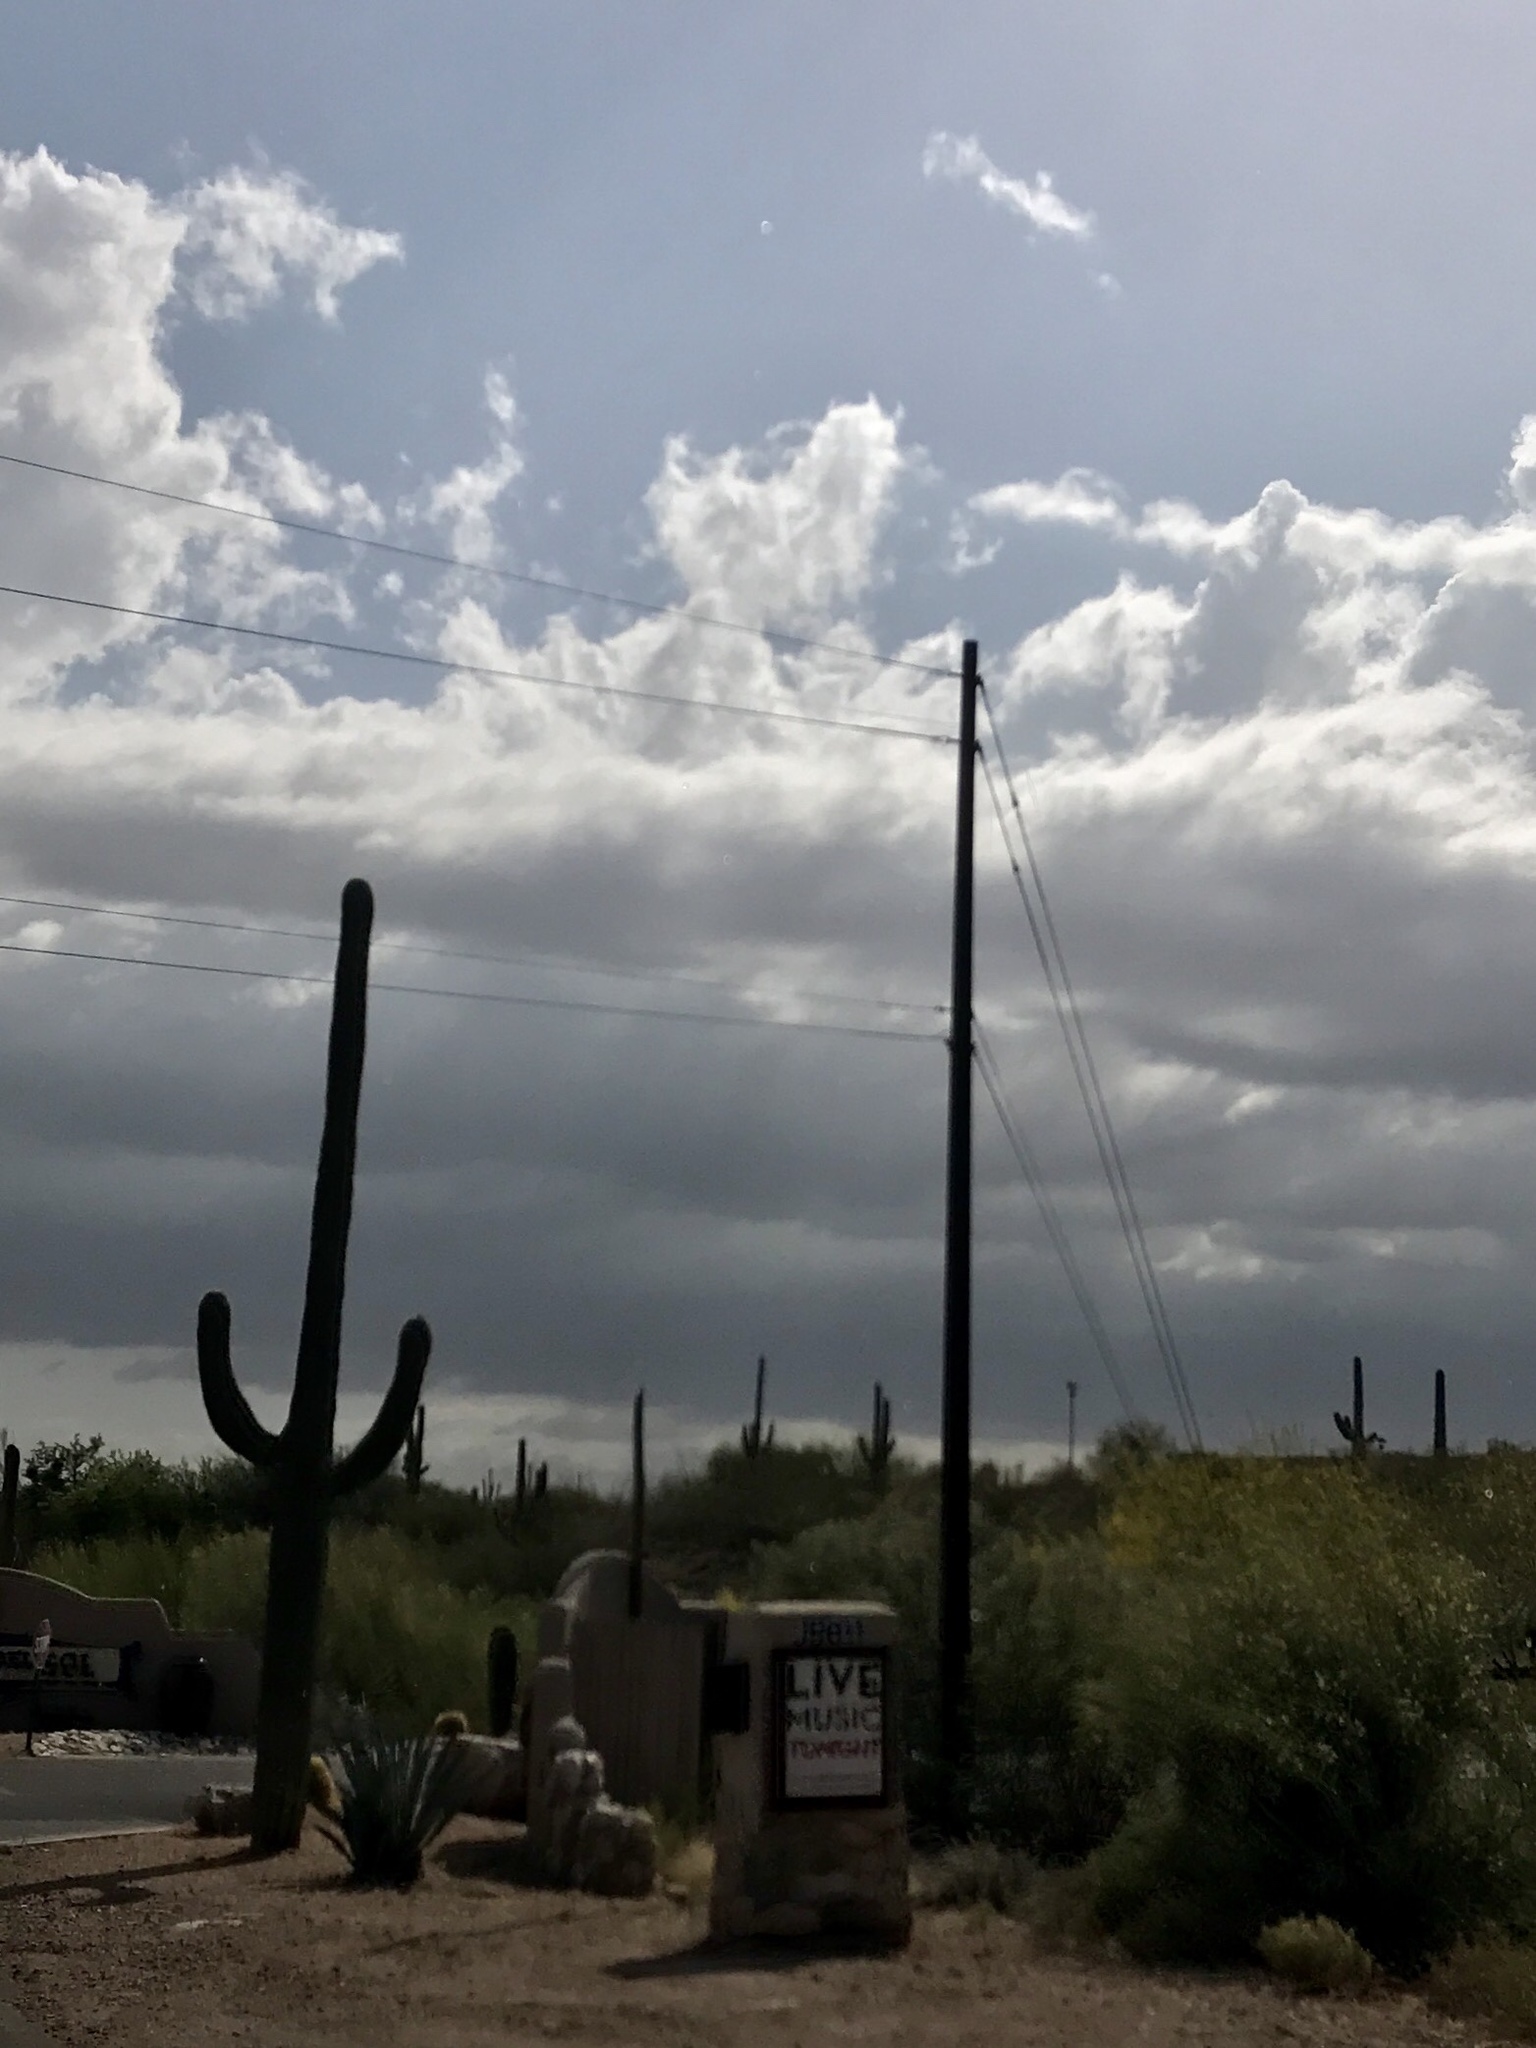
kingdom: Plantae
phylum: Tracheophyta
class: Magnoliopsida
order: Caryophyllales
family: Cactaceae
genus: Carnegiea
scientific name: Carnegiea gigantea
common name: Saguaro
